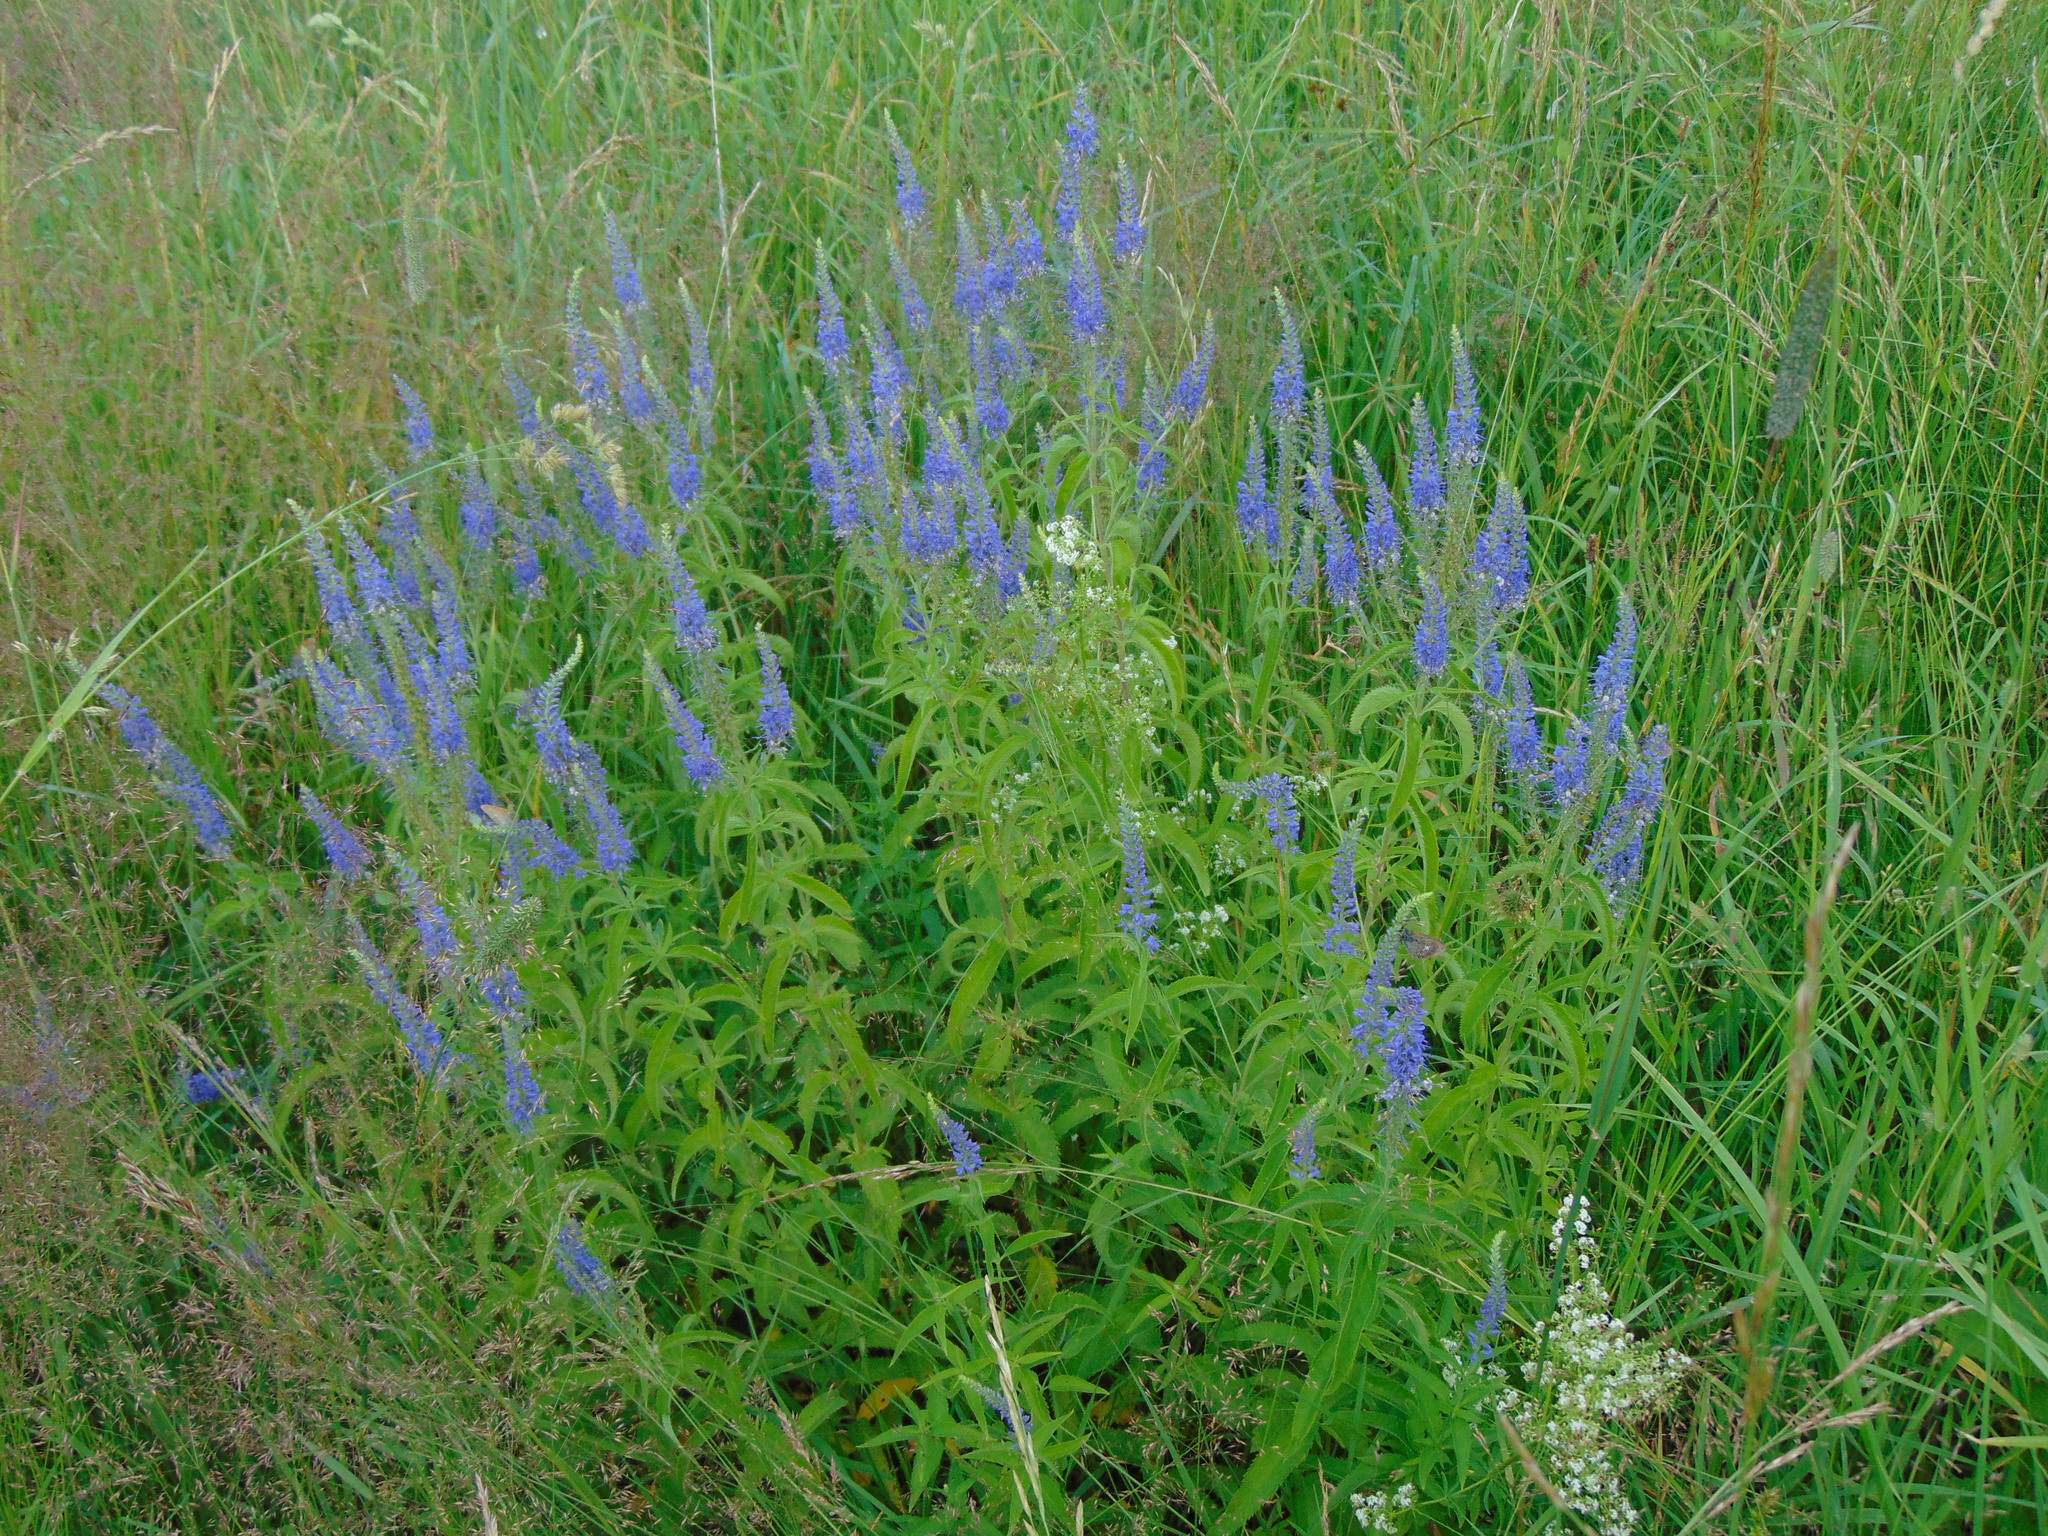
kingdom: Plantae
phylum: Tracheophyta
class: Magnoliopsida
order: Lamiales
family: Plantaginaceae
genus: Veronica
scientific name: Veronica longifolia
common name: Garden speedwell
